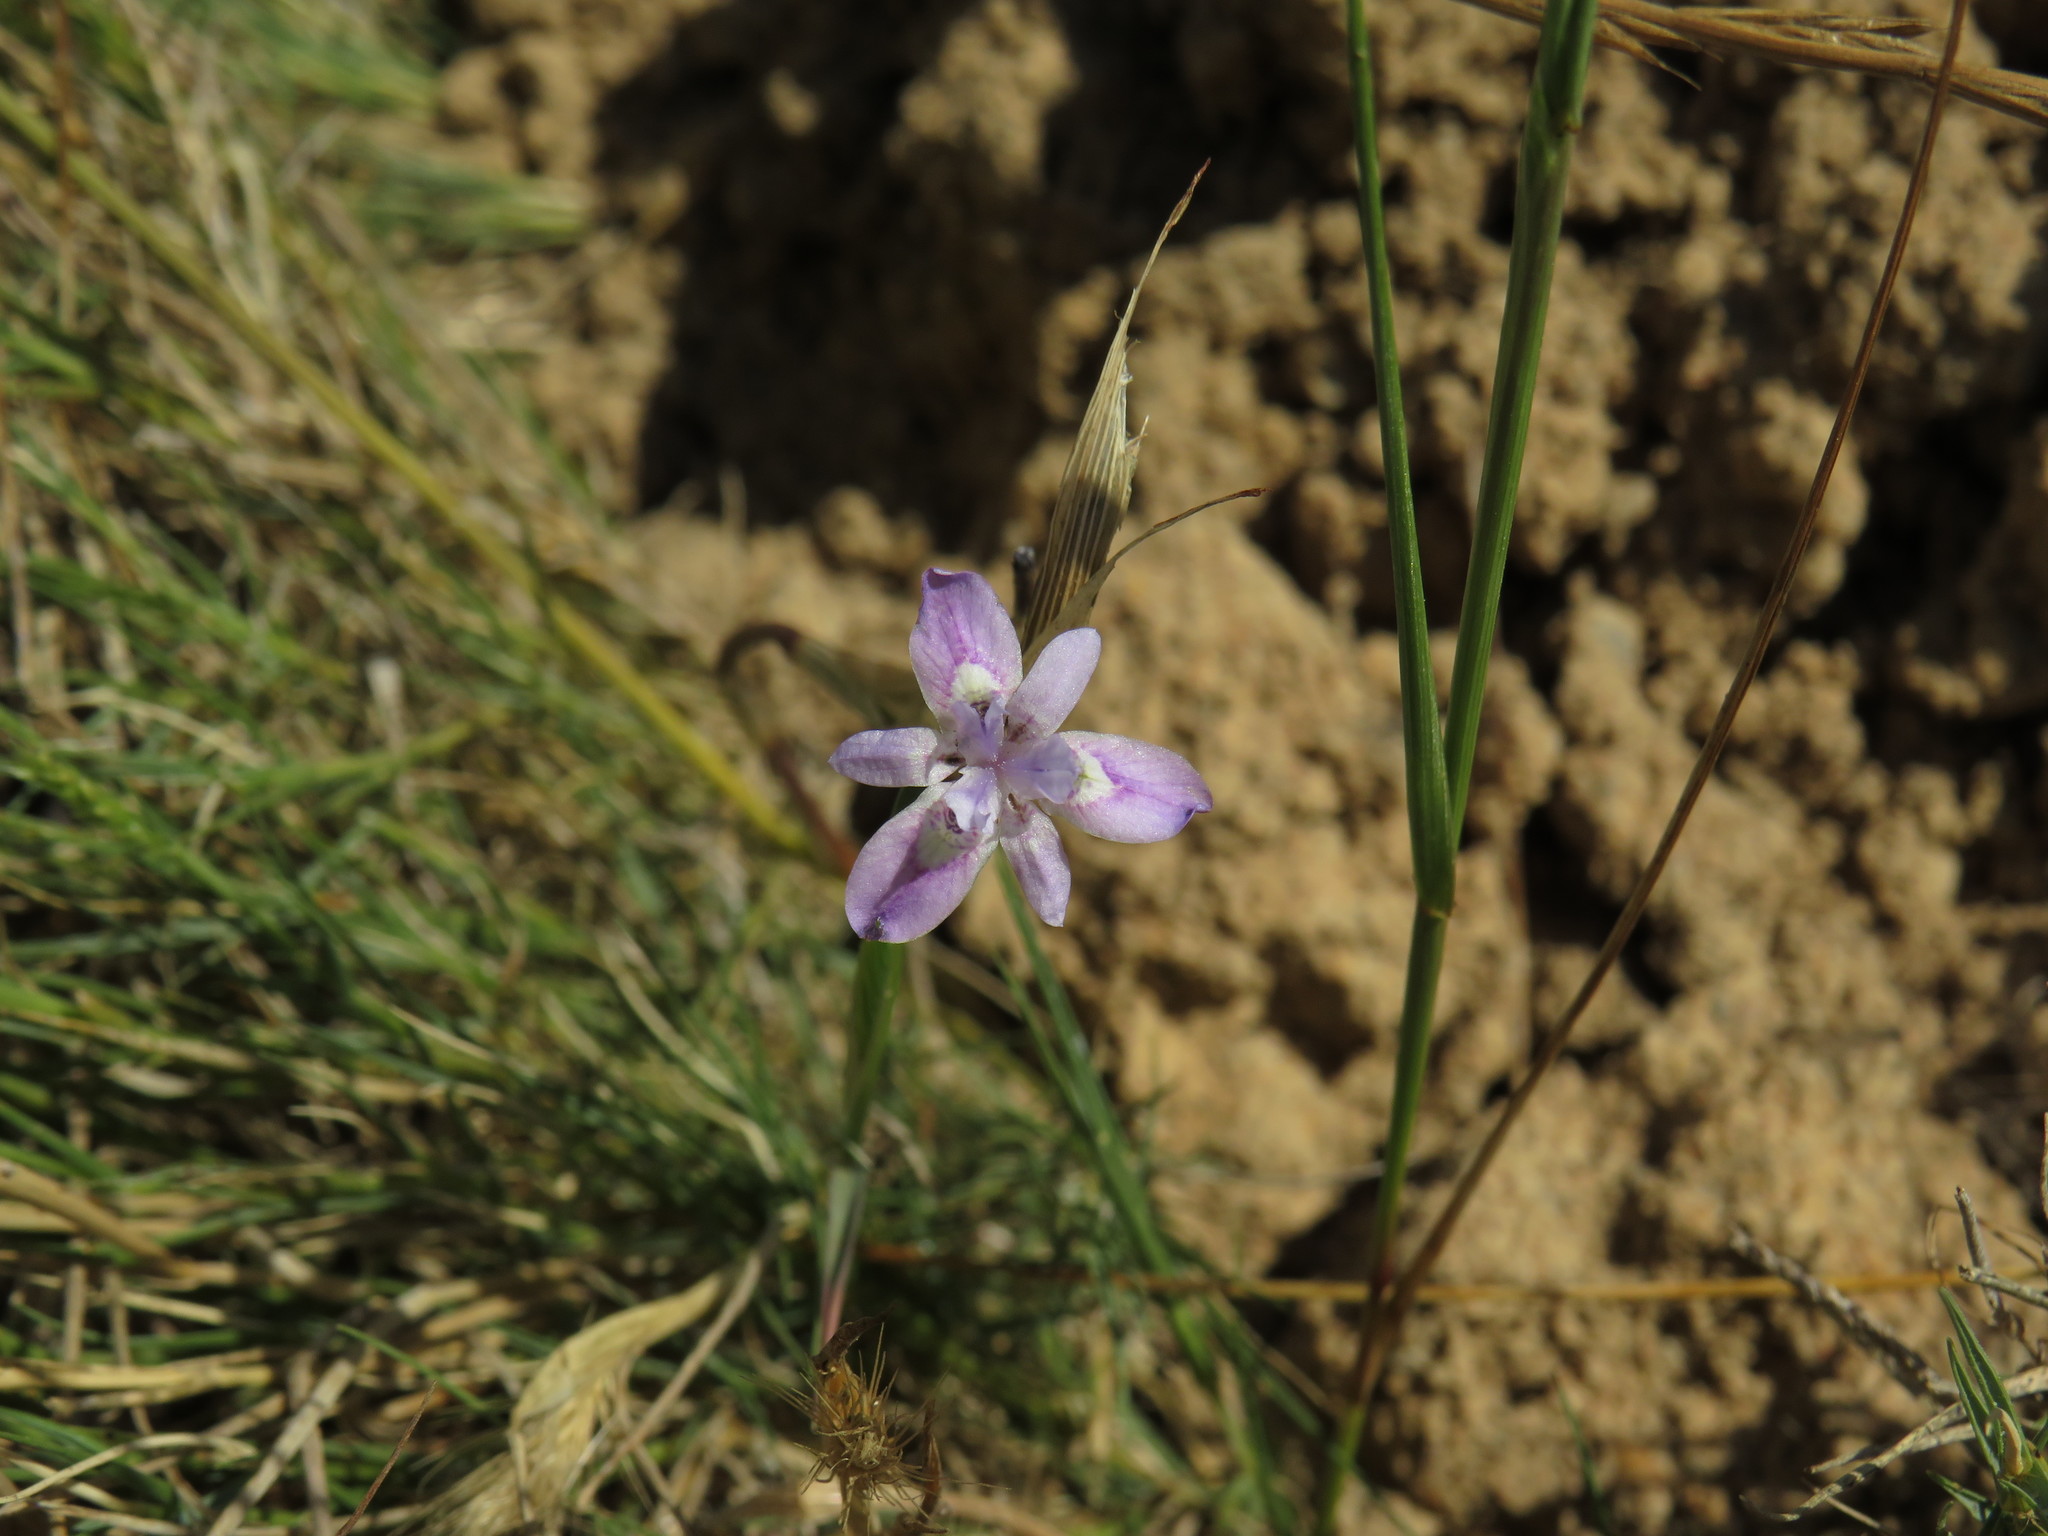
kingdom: Plantae
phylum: Tracheophyta
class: Liliopsida
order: Asparagales
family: Iridaceae
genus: Moraea
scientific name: Moraea setifolia
